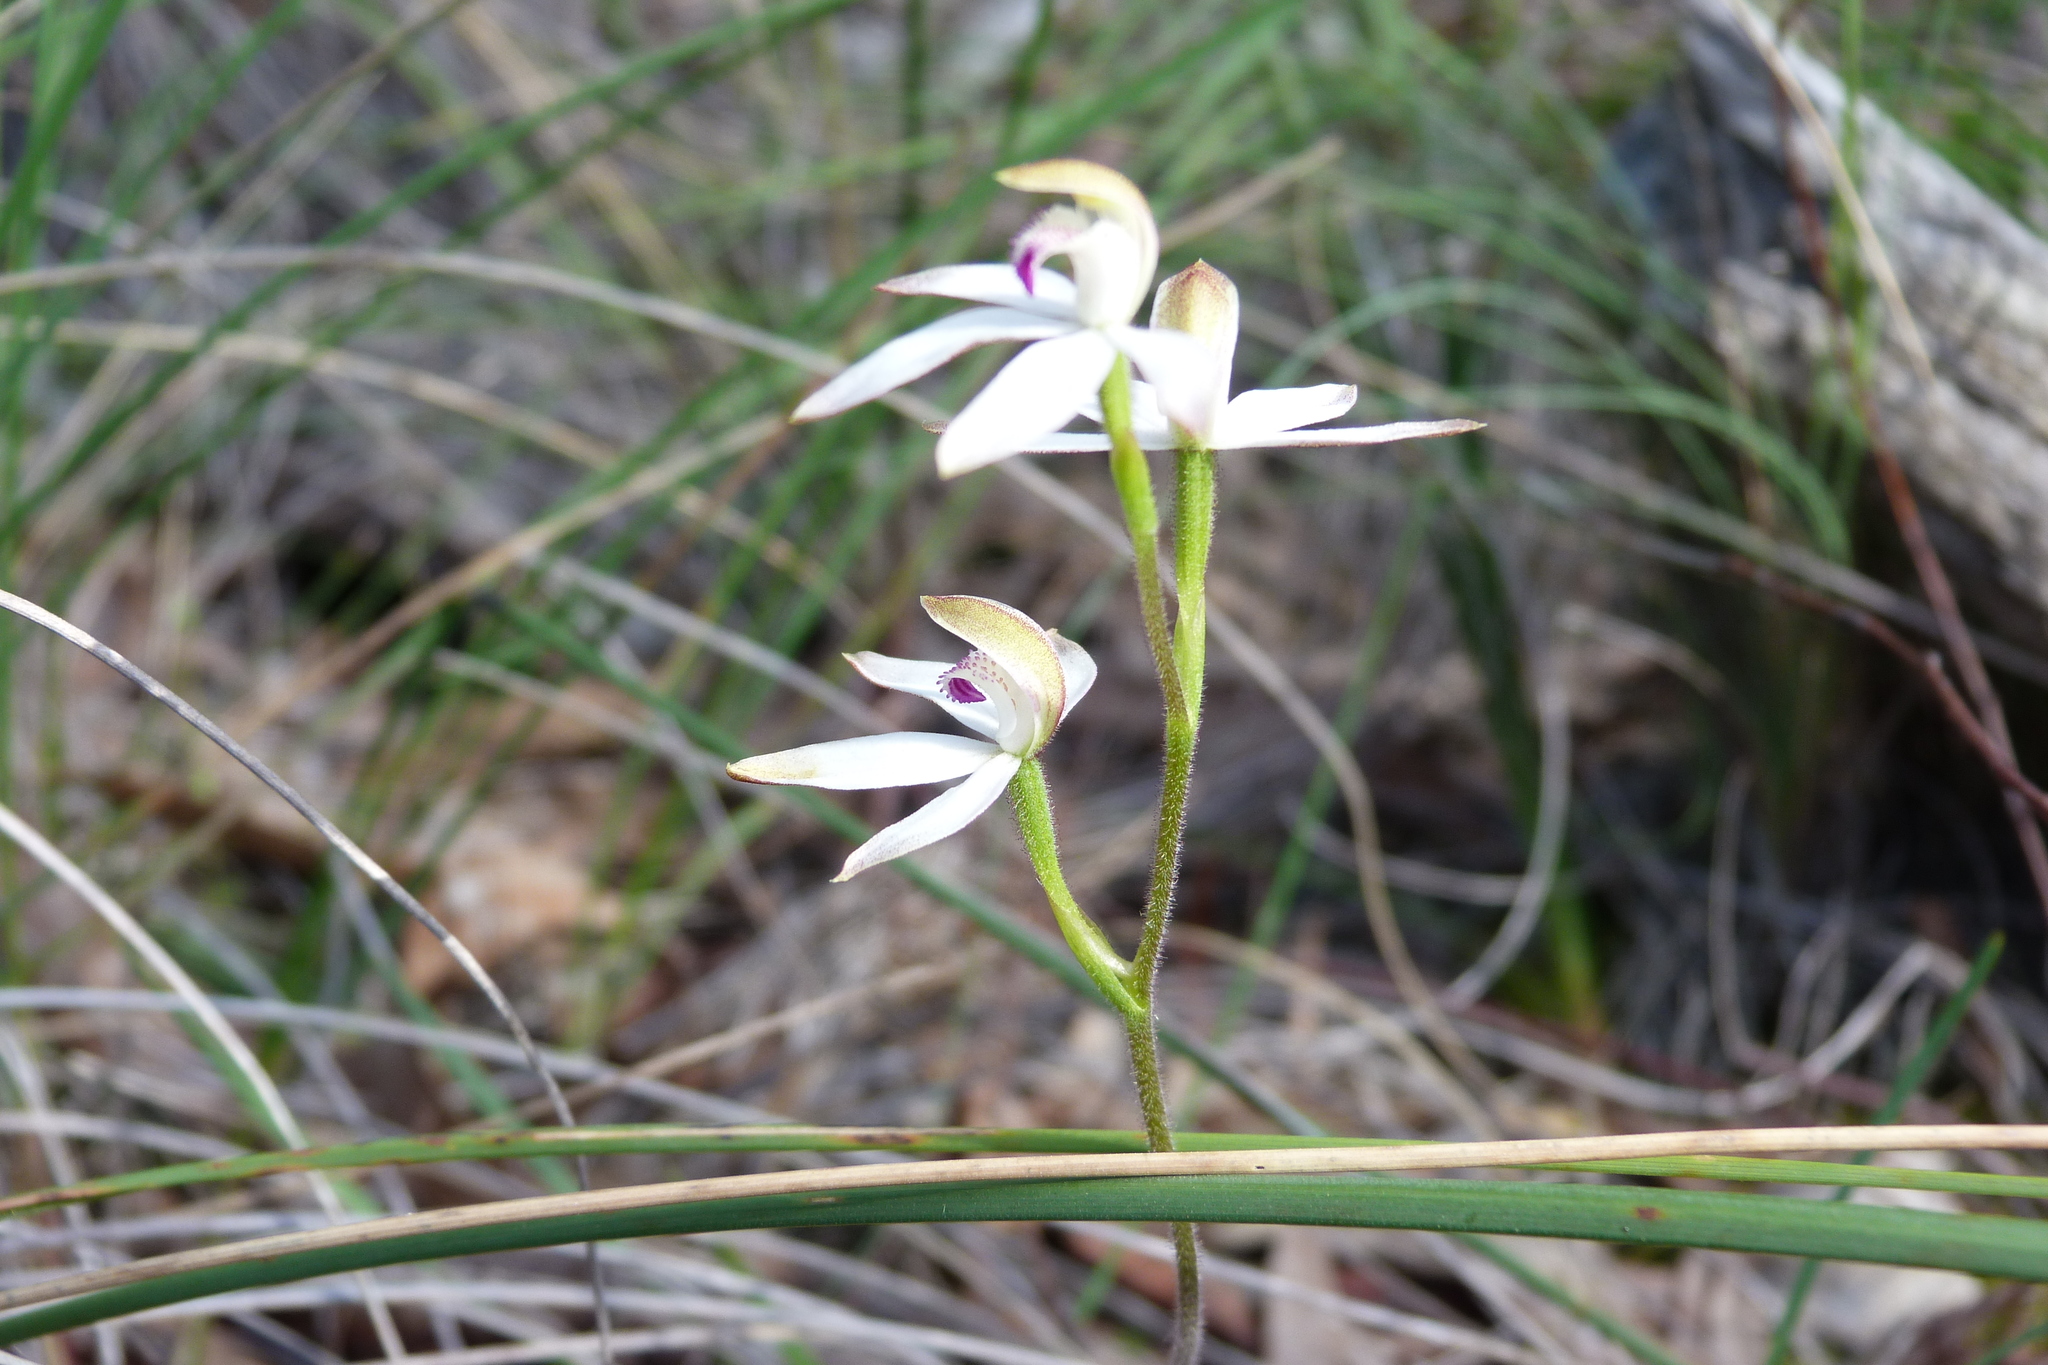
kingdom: Plantae
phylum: Tracheophyta
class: Liliopsida
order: Asparagales
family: Orchidaceae
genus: Caladenia
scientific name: Caladenia cucullata
